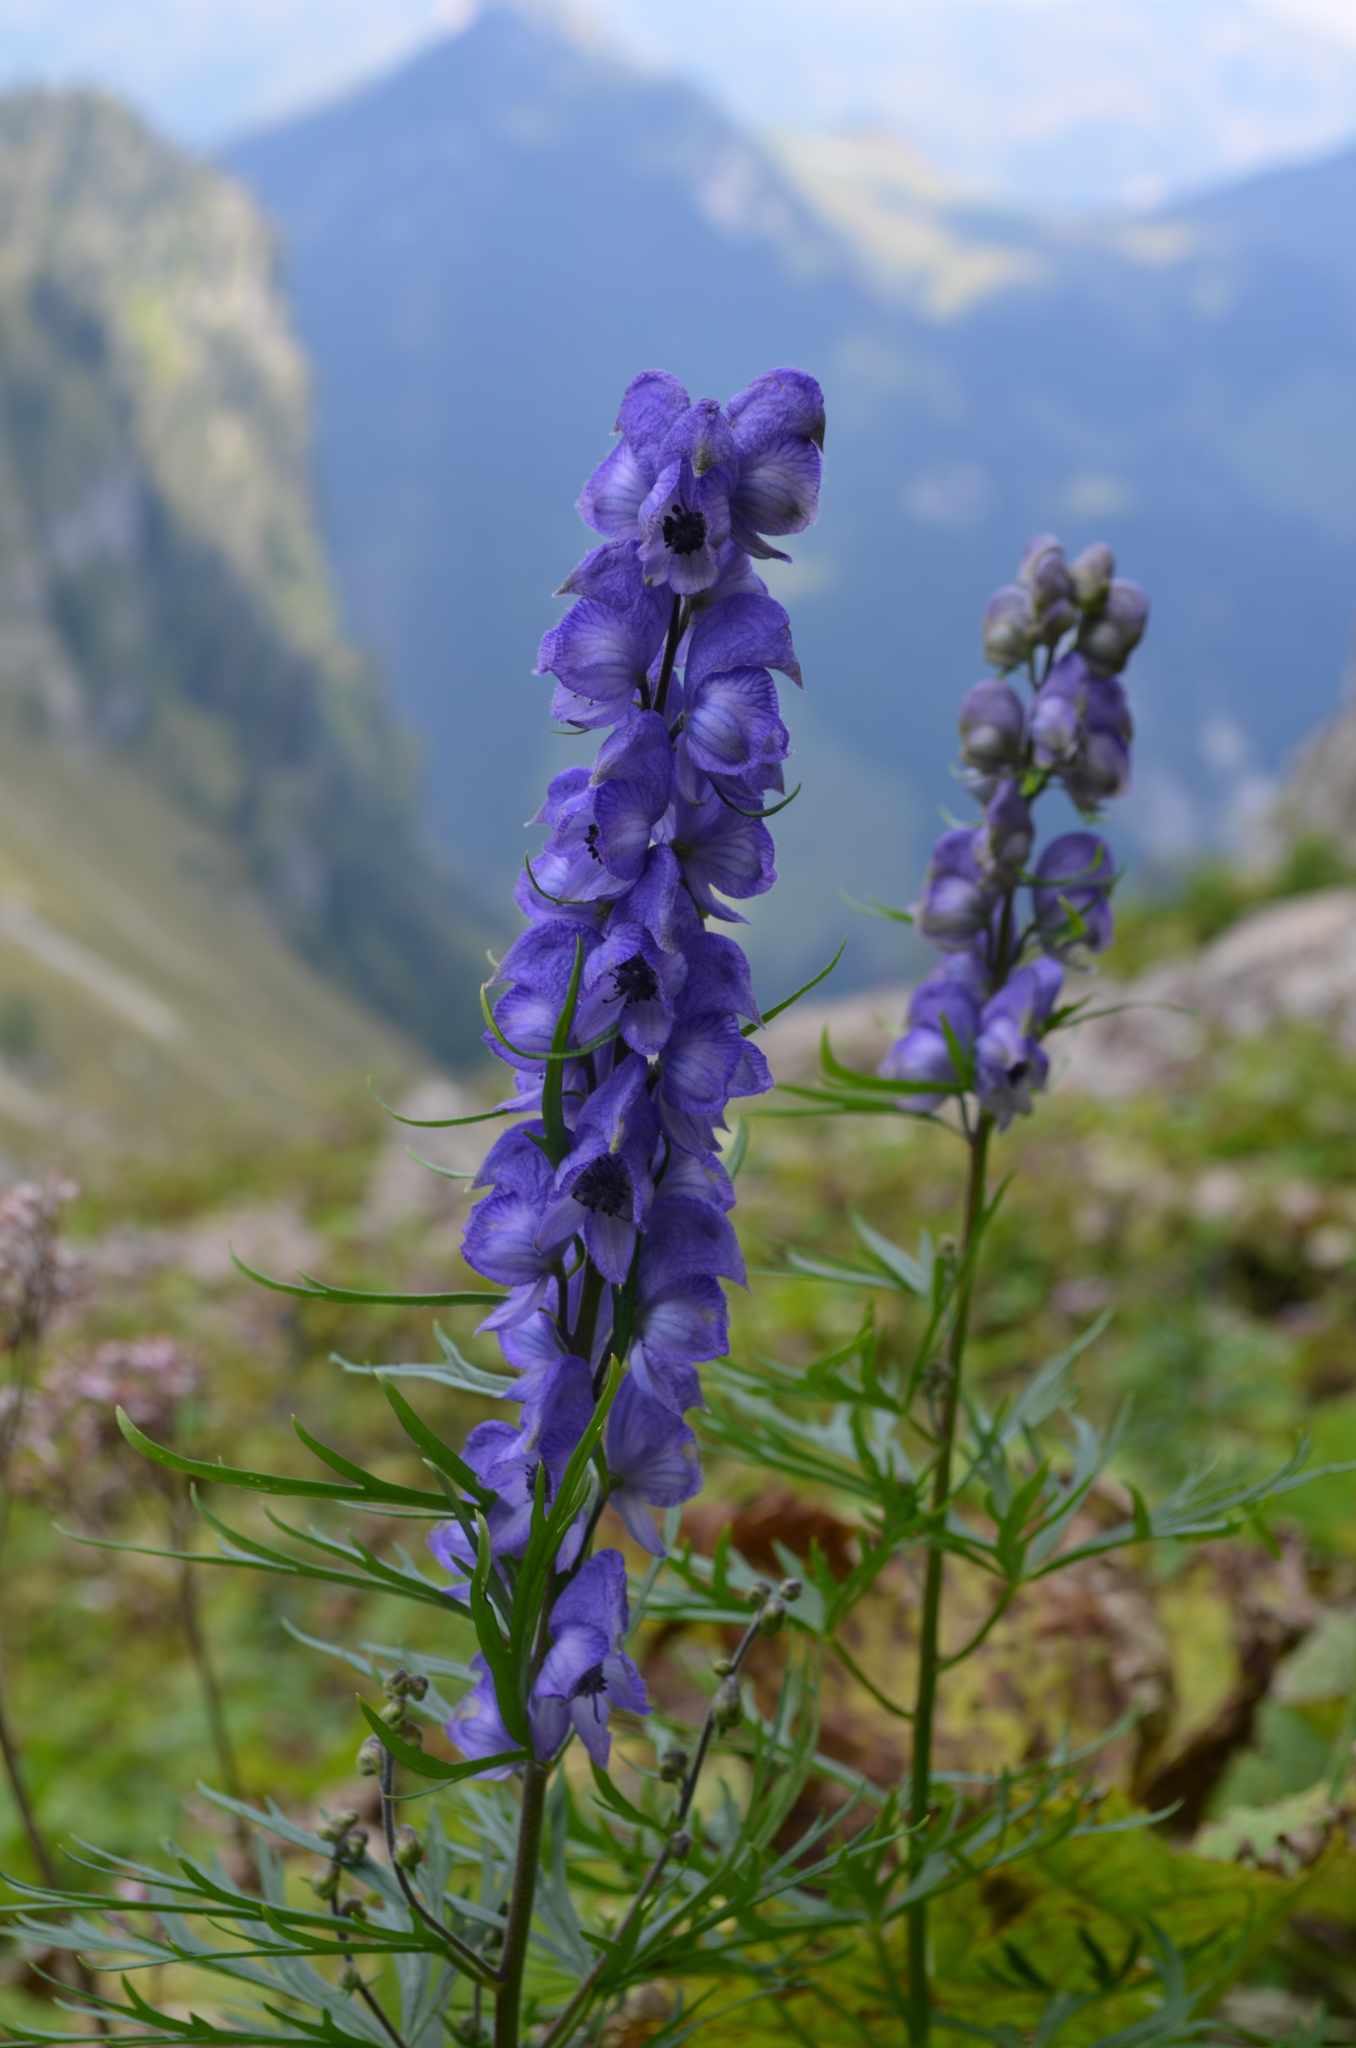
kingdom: Plantae
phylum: Tracheophyta
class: Magnoliopsida
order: Ranunculales
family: Ranunculaceae
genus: Aconitum
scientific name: Aconitum napellus
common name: Garden monkshood
